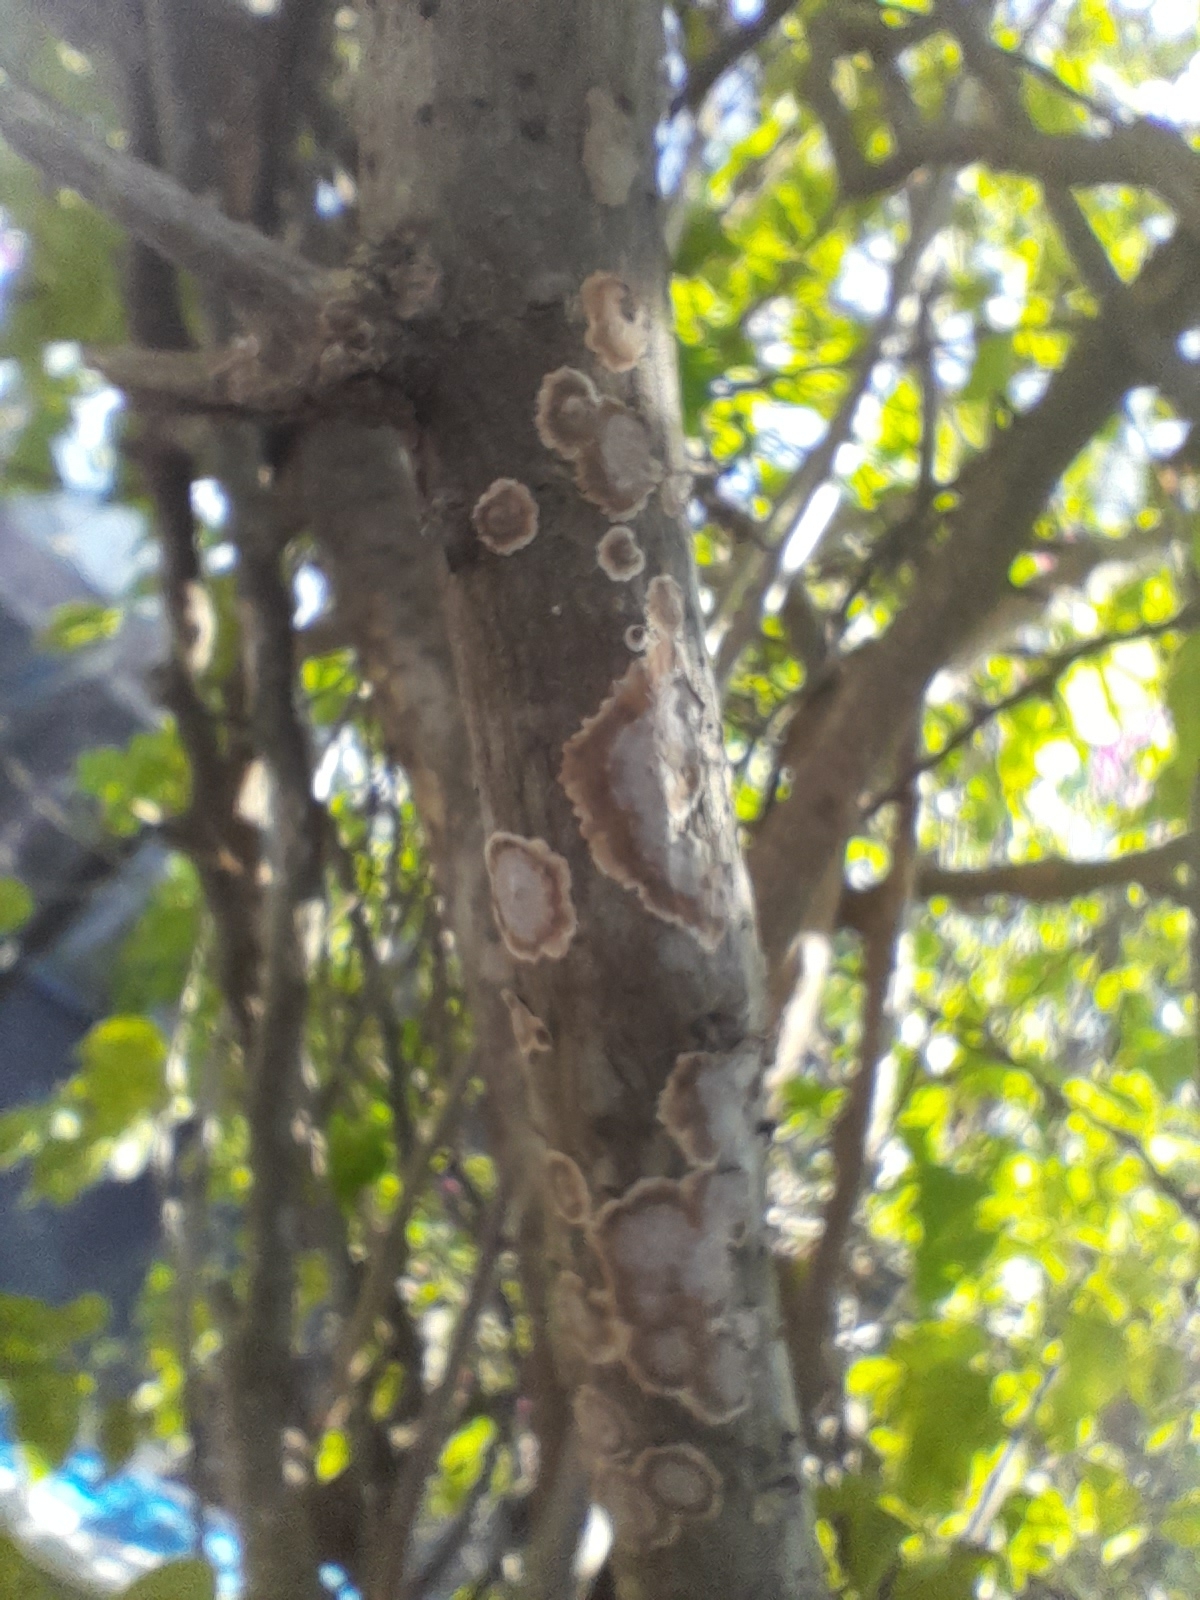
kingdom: Fungi
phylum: Basidiomycota
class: Agaricomycetes
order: Russulales
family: Peniophoraceae
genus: Peniophora
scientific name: Peniophora albobadia
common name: Giraffe spots
